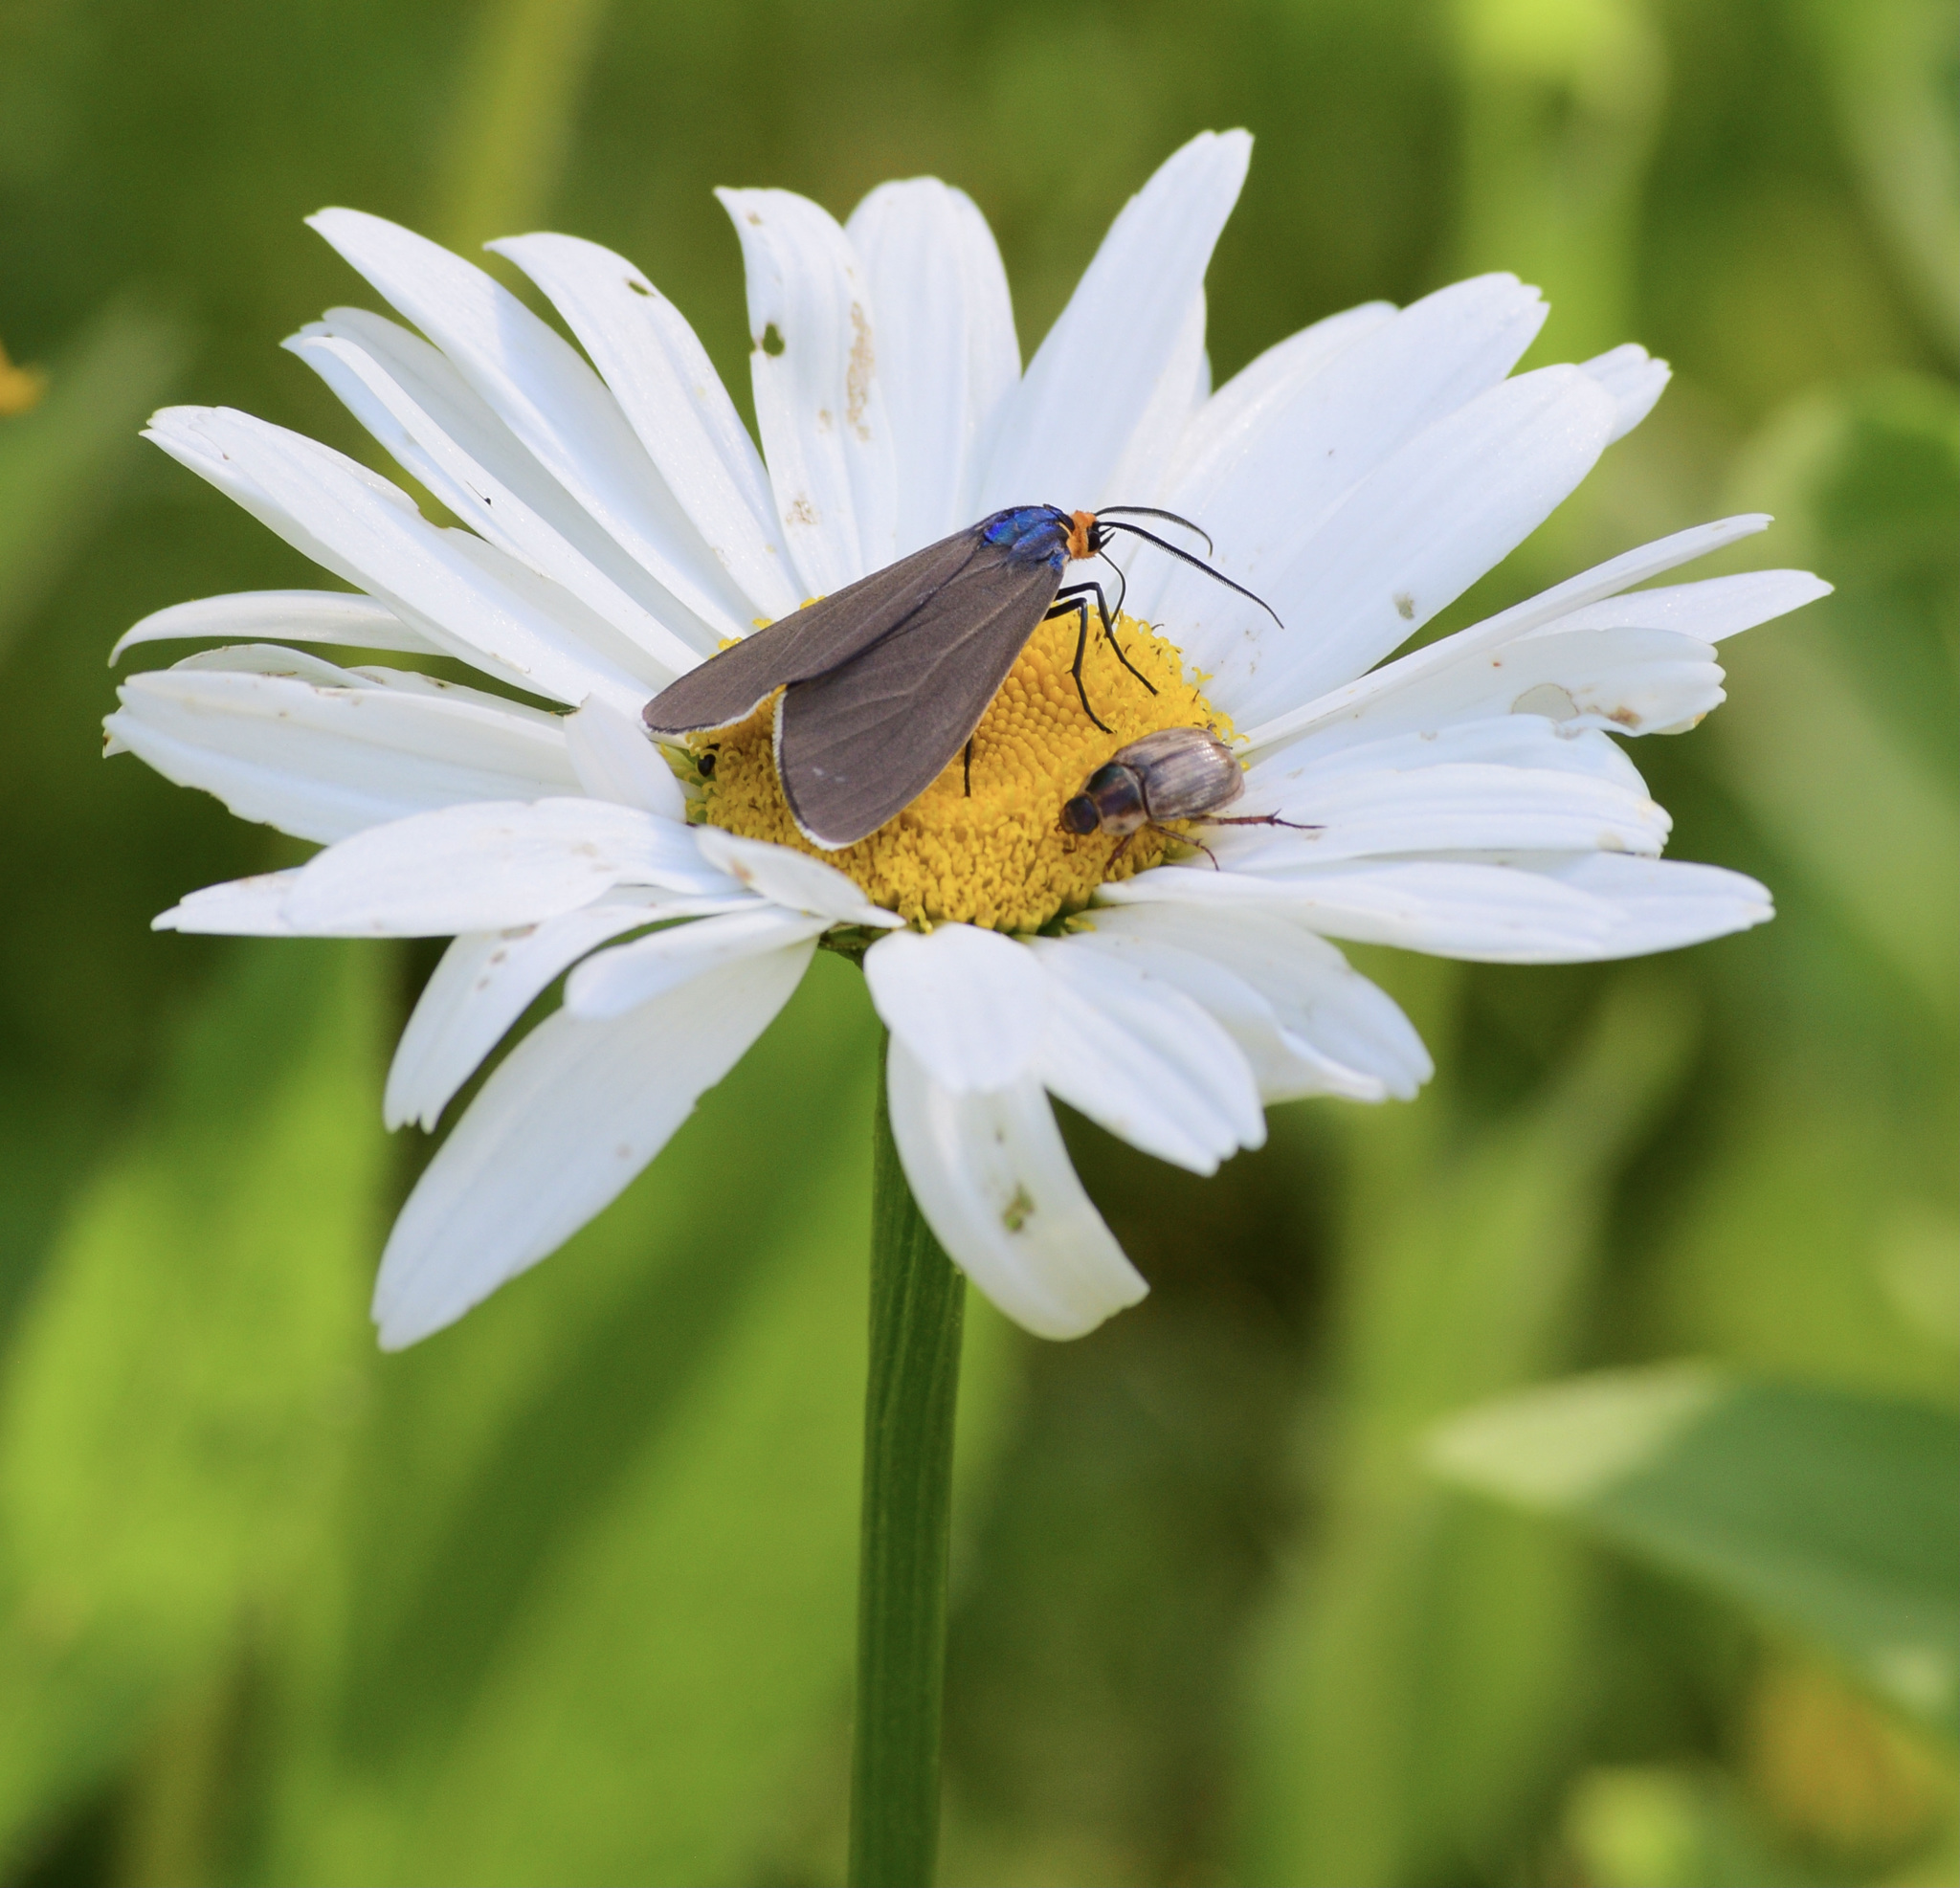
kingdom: Animalia
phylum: Arthropoda
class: Insecta
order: Lepidoptera
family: Erebidae
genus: Ctenucha
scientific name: Ctenucha virginica
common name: Virginia ctenucha moth
